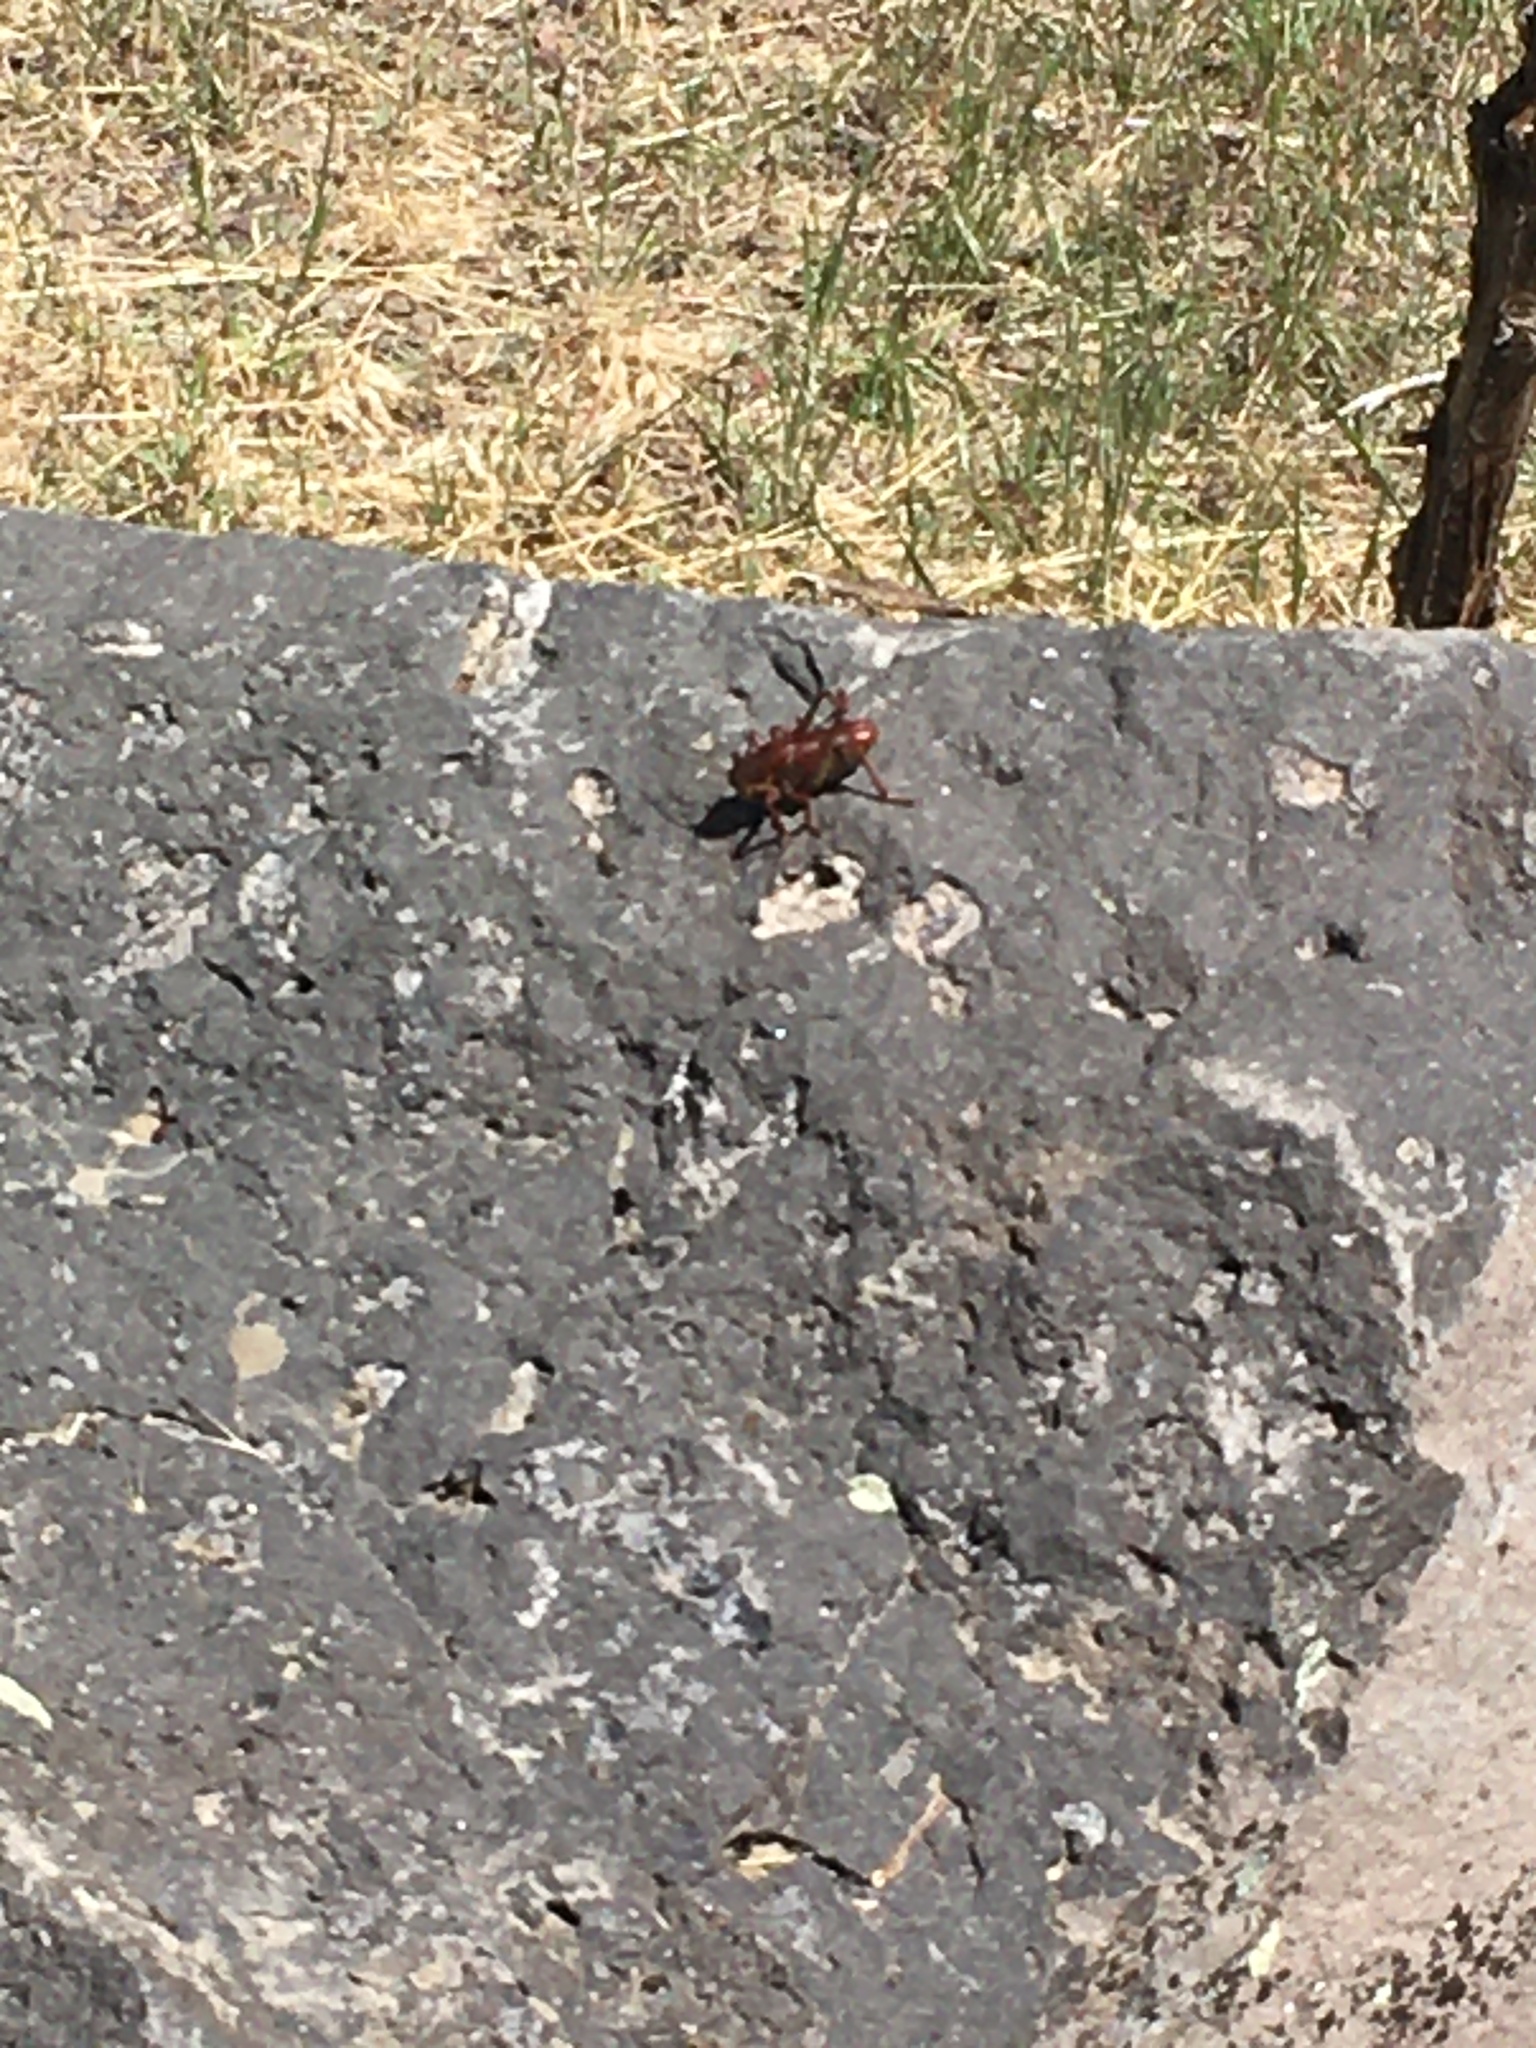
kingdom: Animalia
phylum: Arthropoda
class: Insecta
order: Orthoptera
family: Tettigoniidae
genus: Anabrus
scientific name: Anabrus simplex
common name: Mormon cricket
